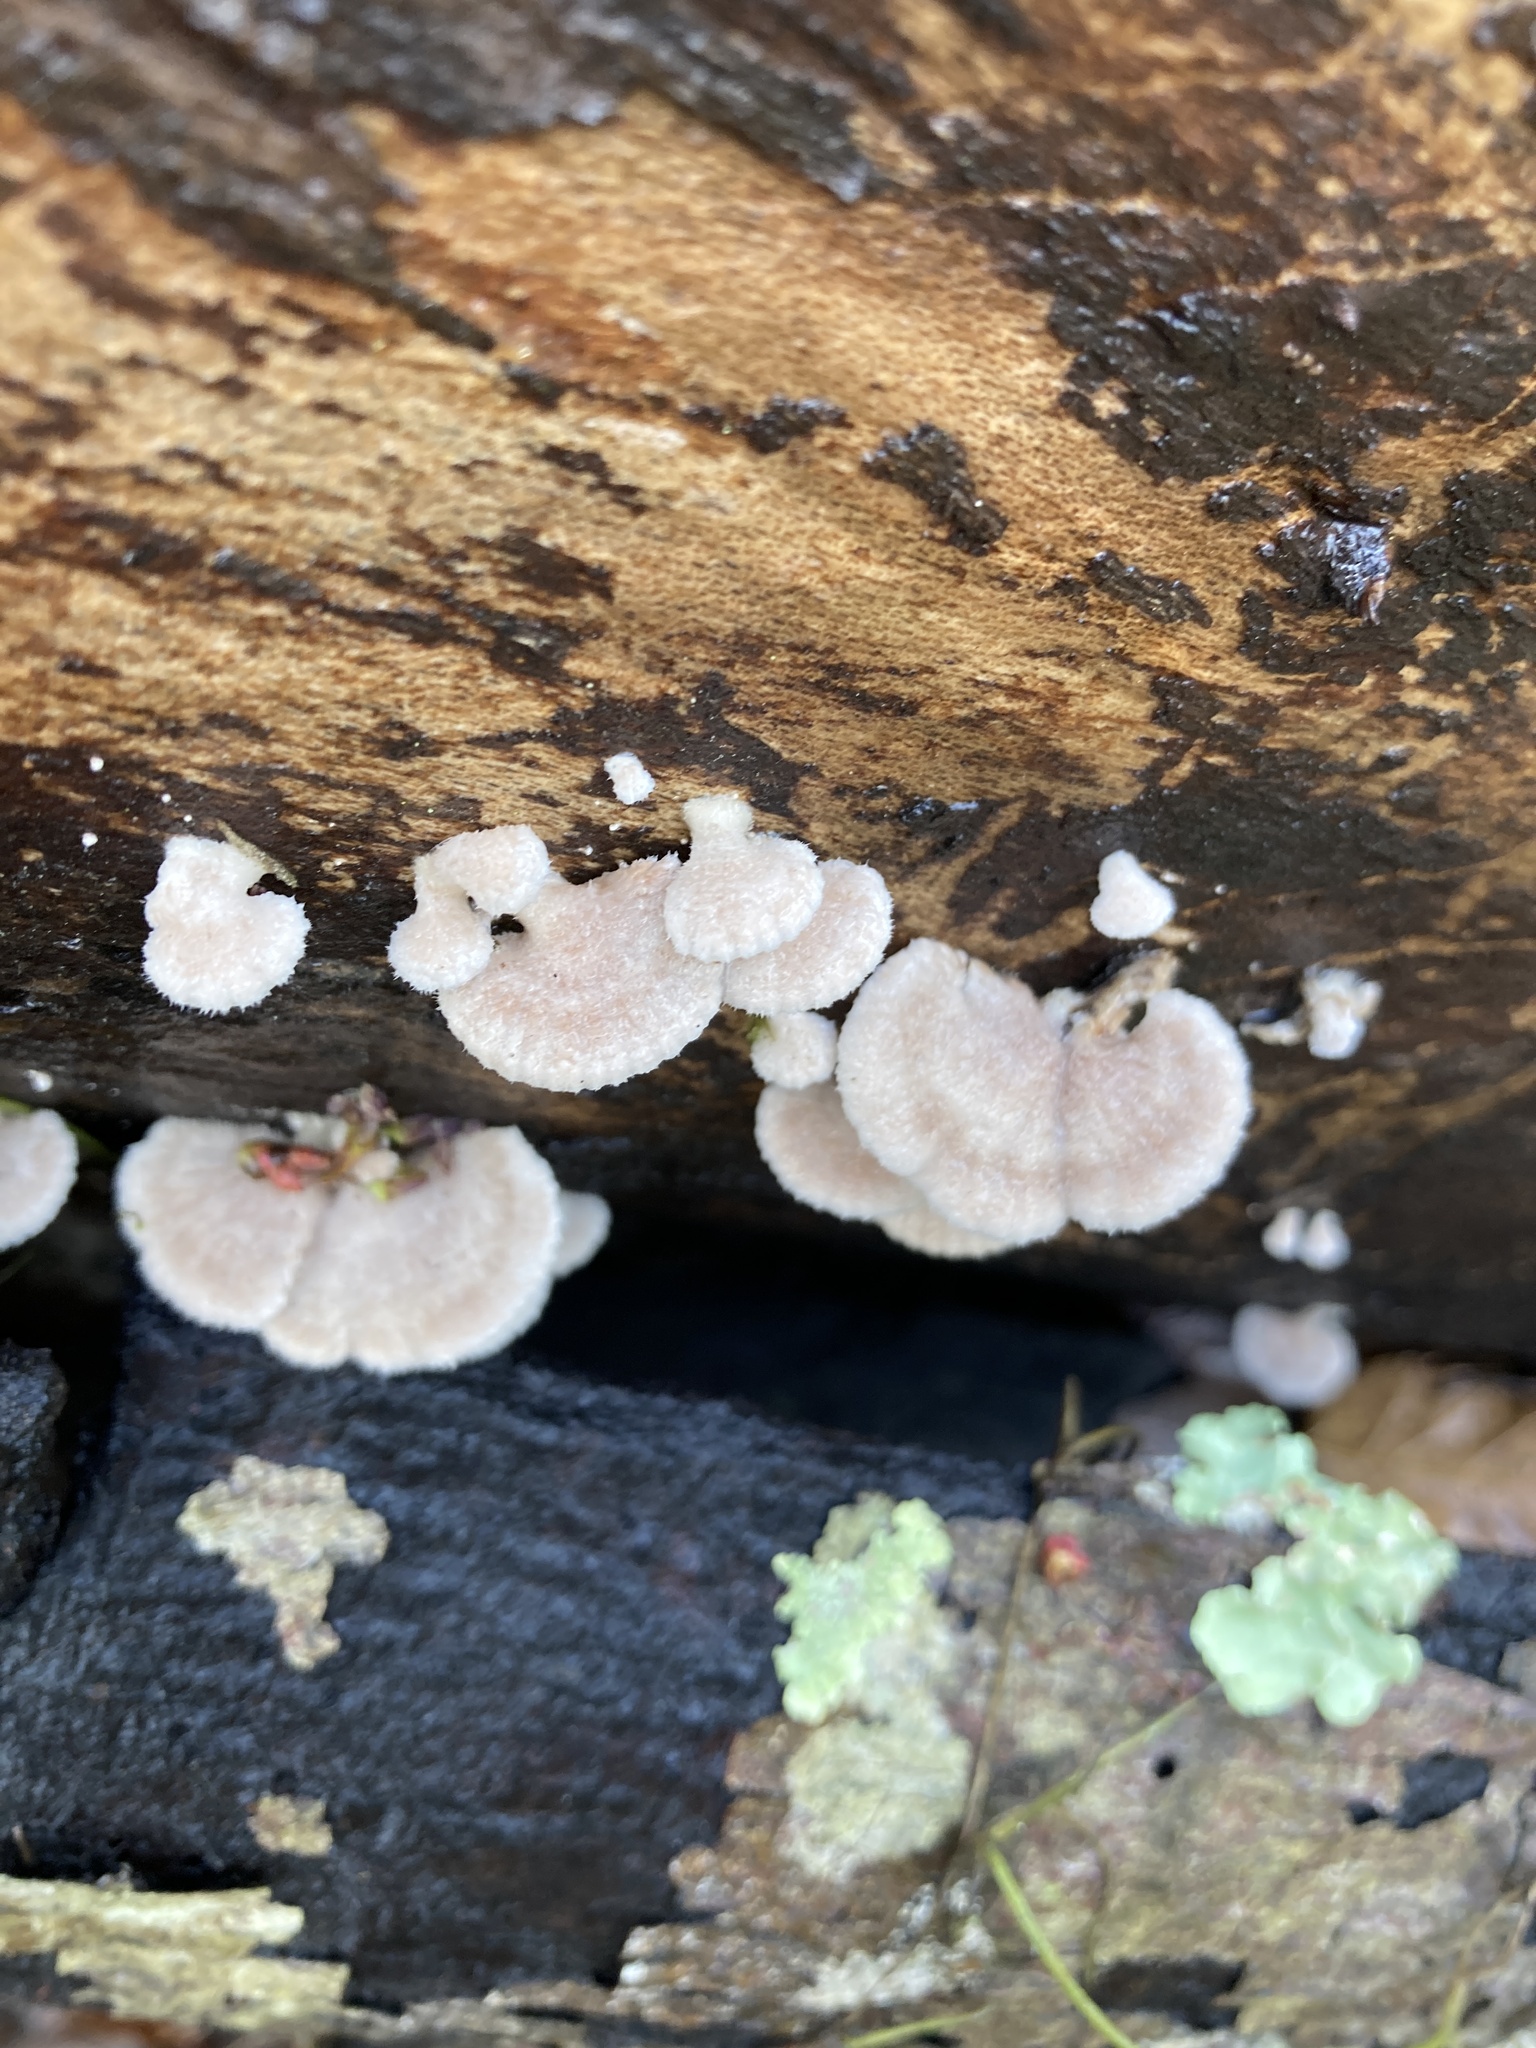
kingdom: Fungi
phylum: Basidiomycota
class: Agaricomycetes
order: Agaricales
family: Schizophyllaceae
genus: Schizophyllum
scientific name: Schizophyllum commune
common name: Common porecrust
